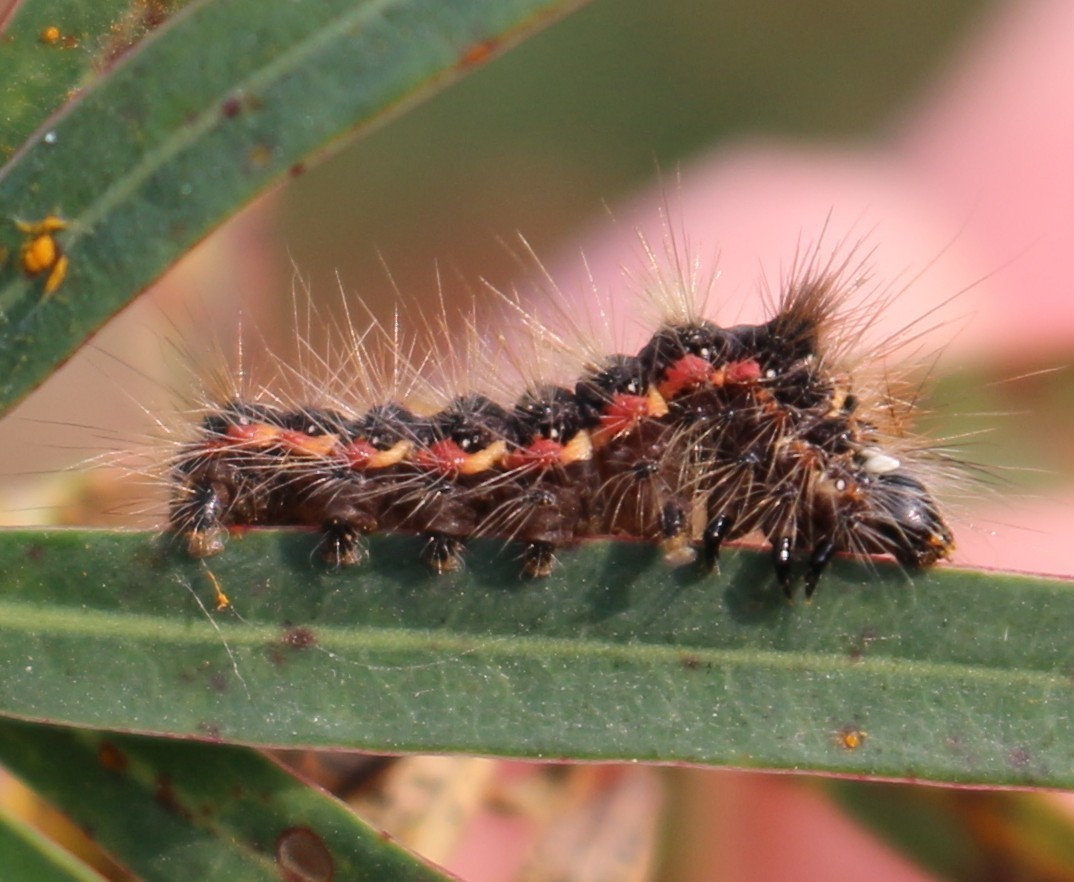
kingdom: Animalia
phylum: Arthropoda
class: Insecta
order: Lepidoptera
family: Noctuidae
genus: Acronicta
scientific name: Acronicta rumicis
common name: Knot grass
